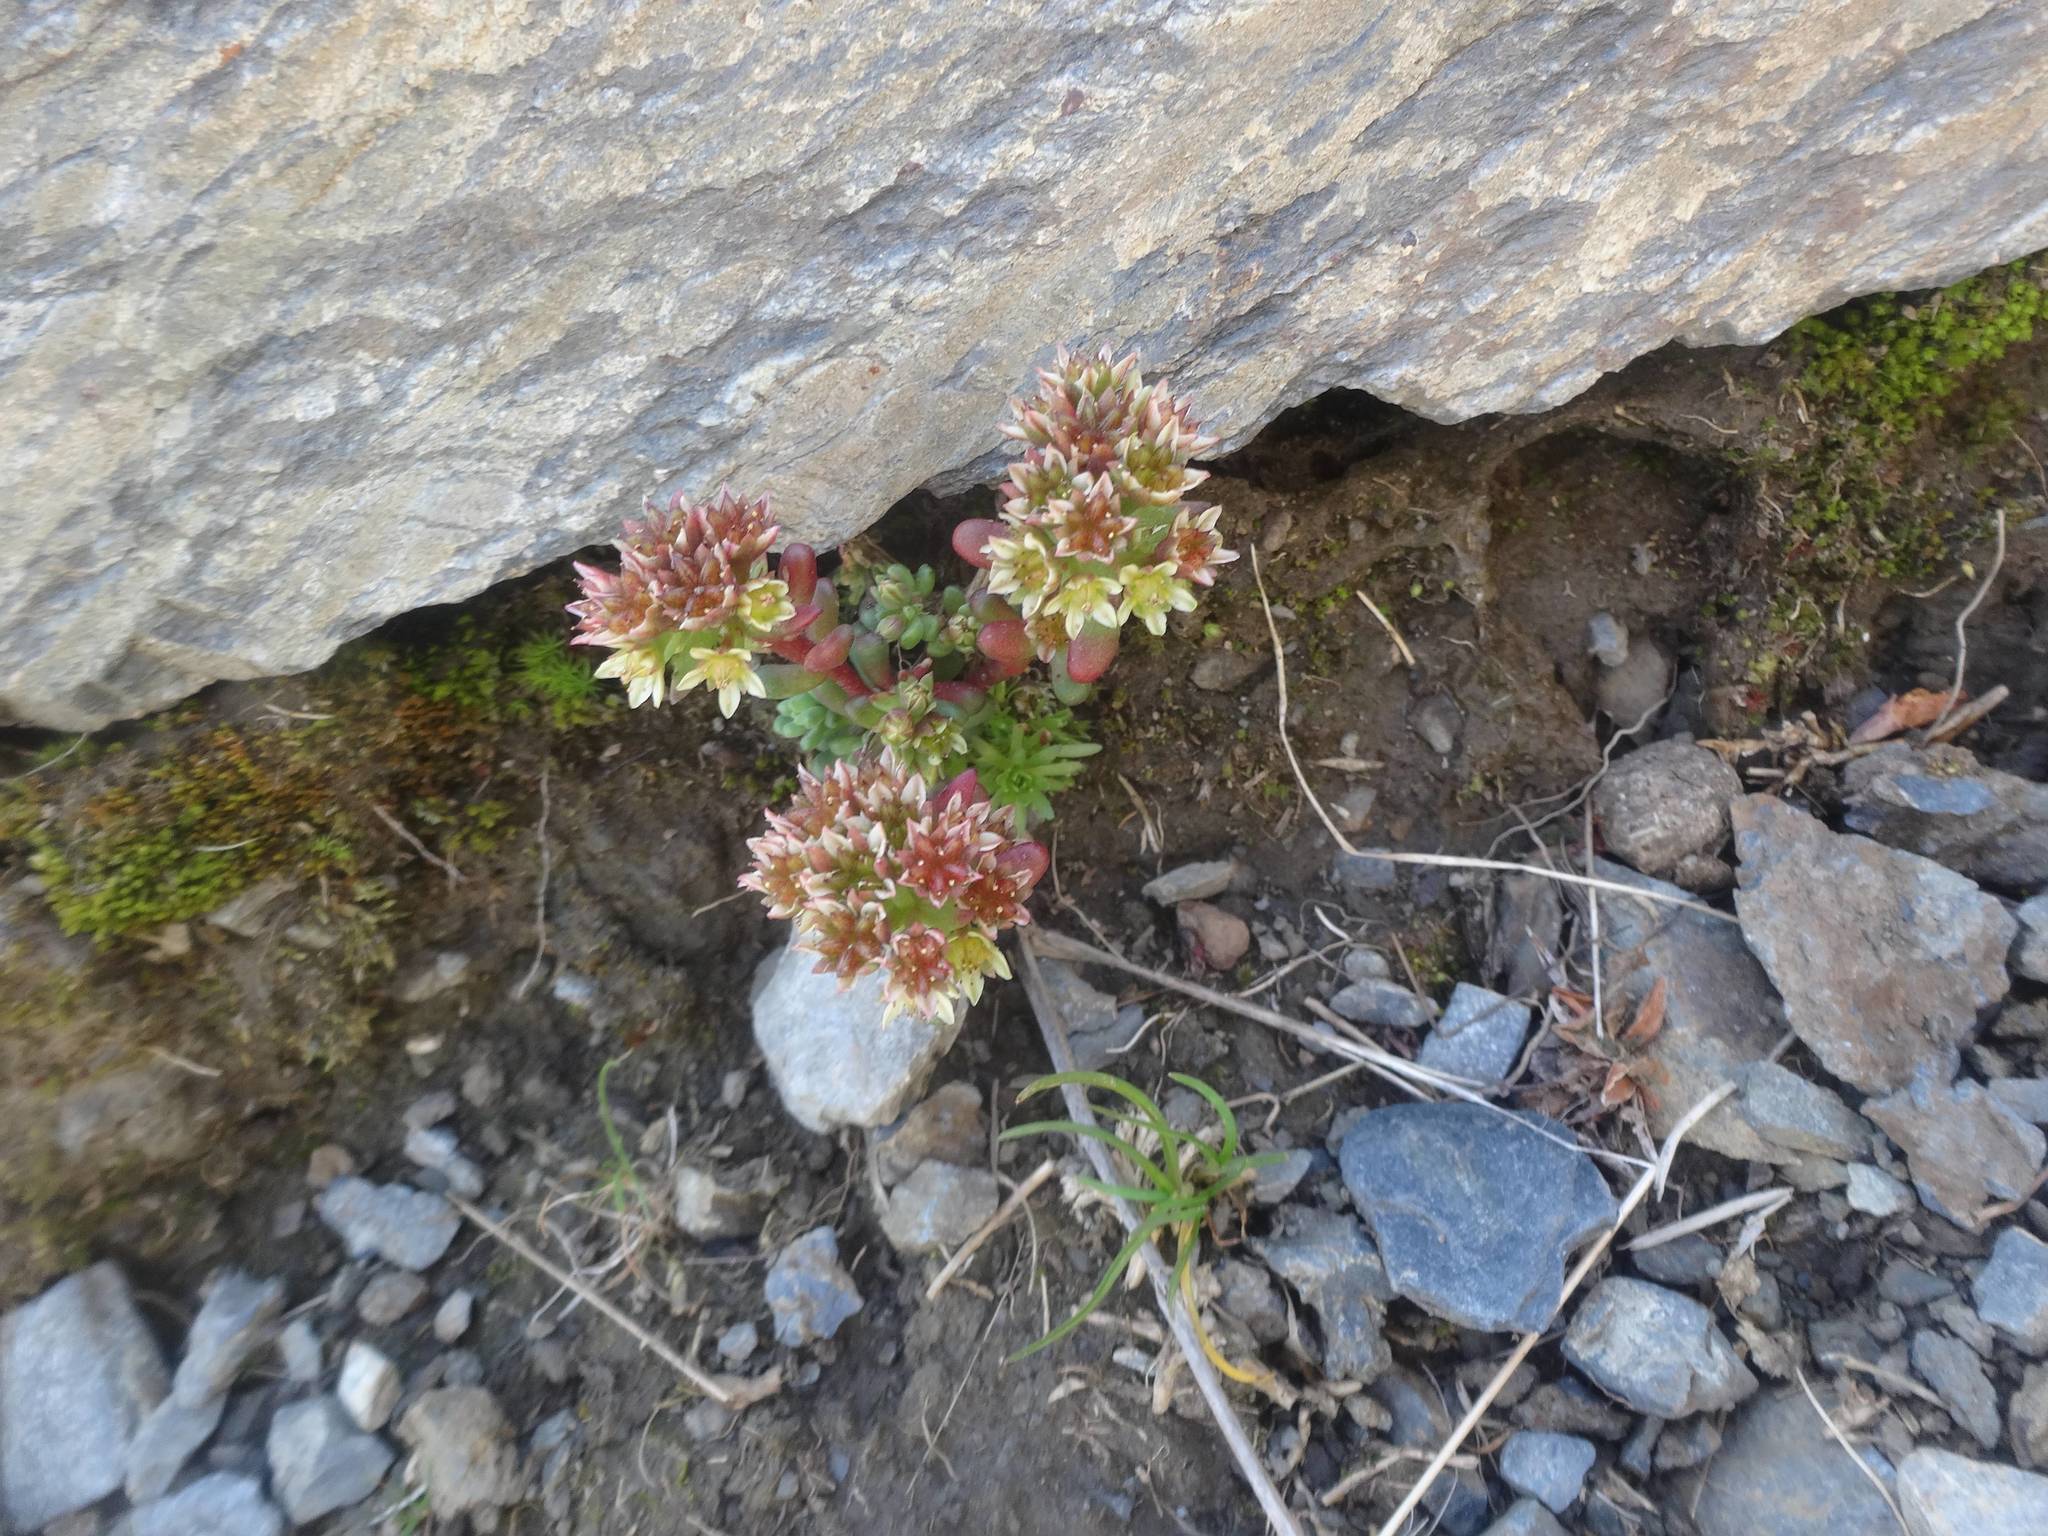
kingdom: Plantae
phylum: Tracheophyta
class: Magnoliopsida
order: Saxifragales
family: Crassulaceae
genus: Sedum
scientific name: Sedum atratum
